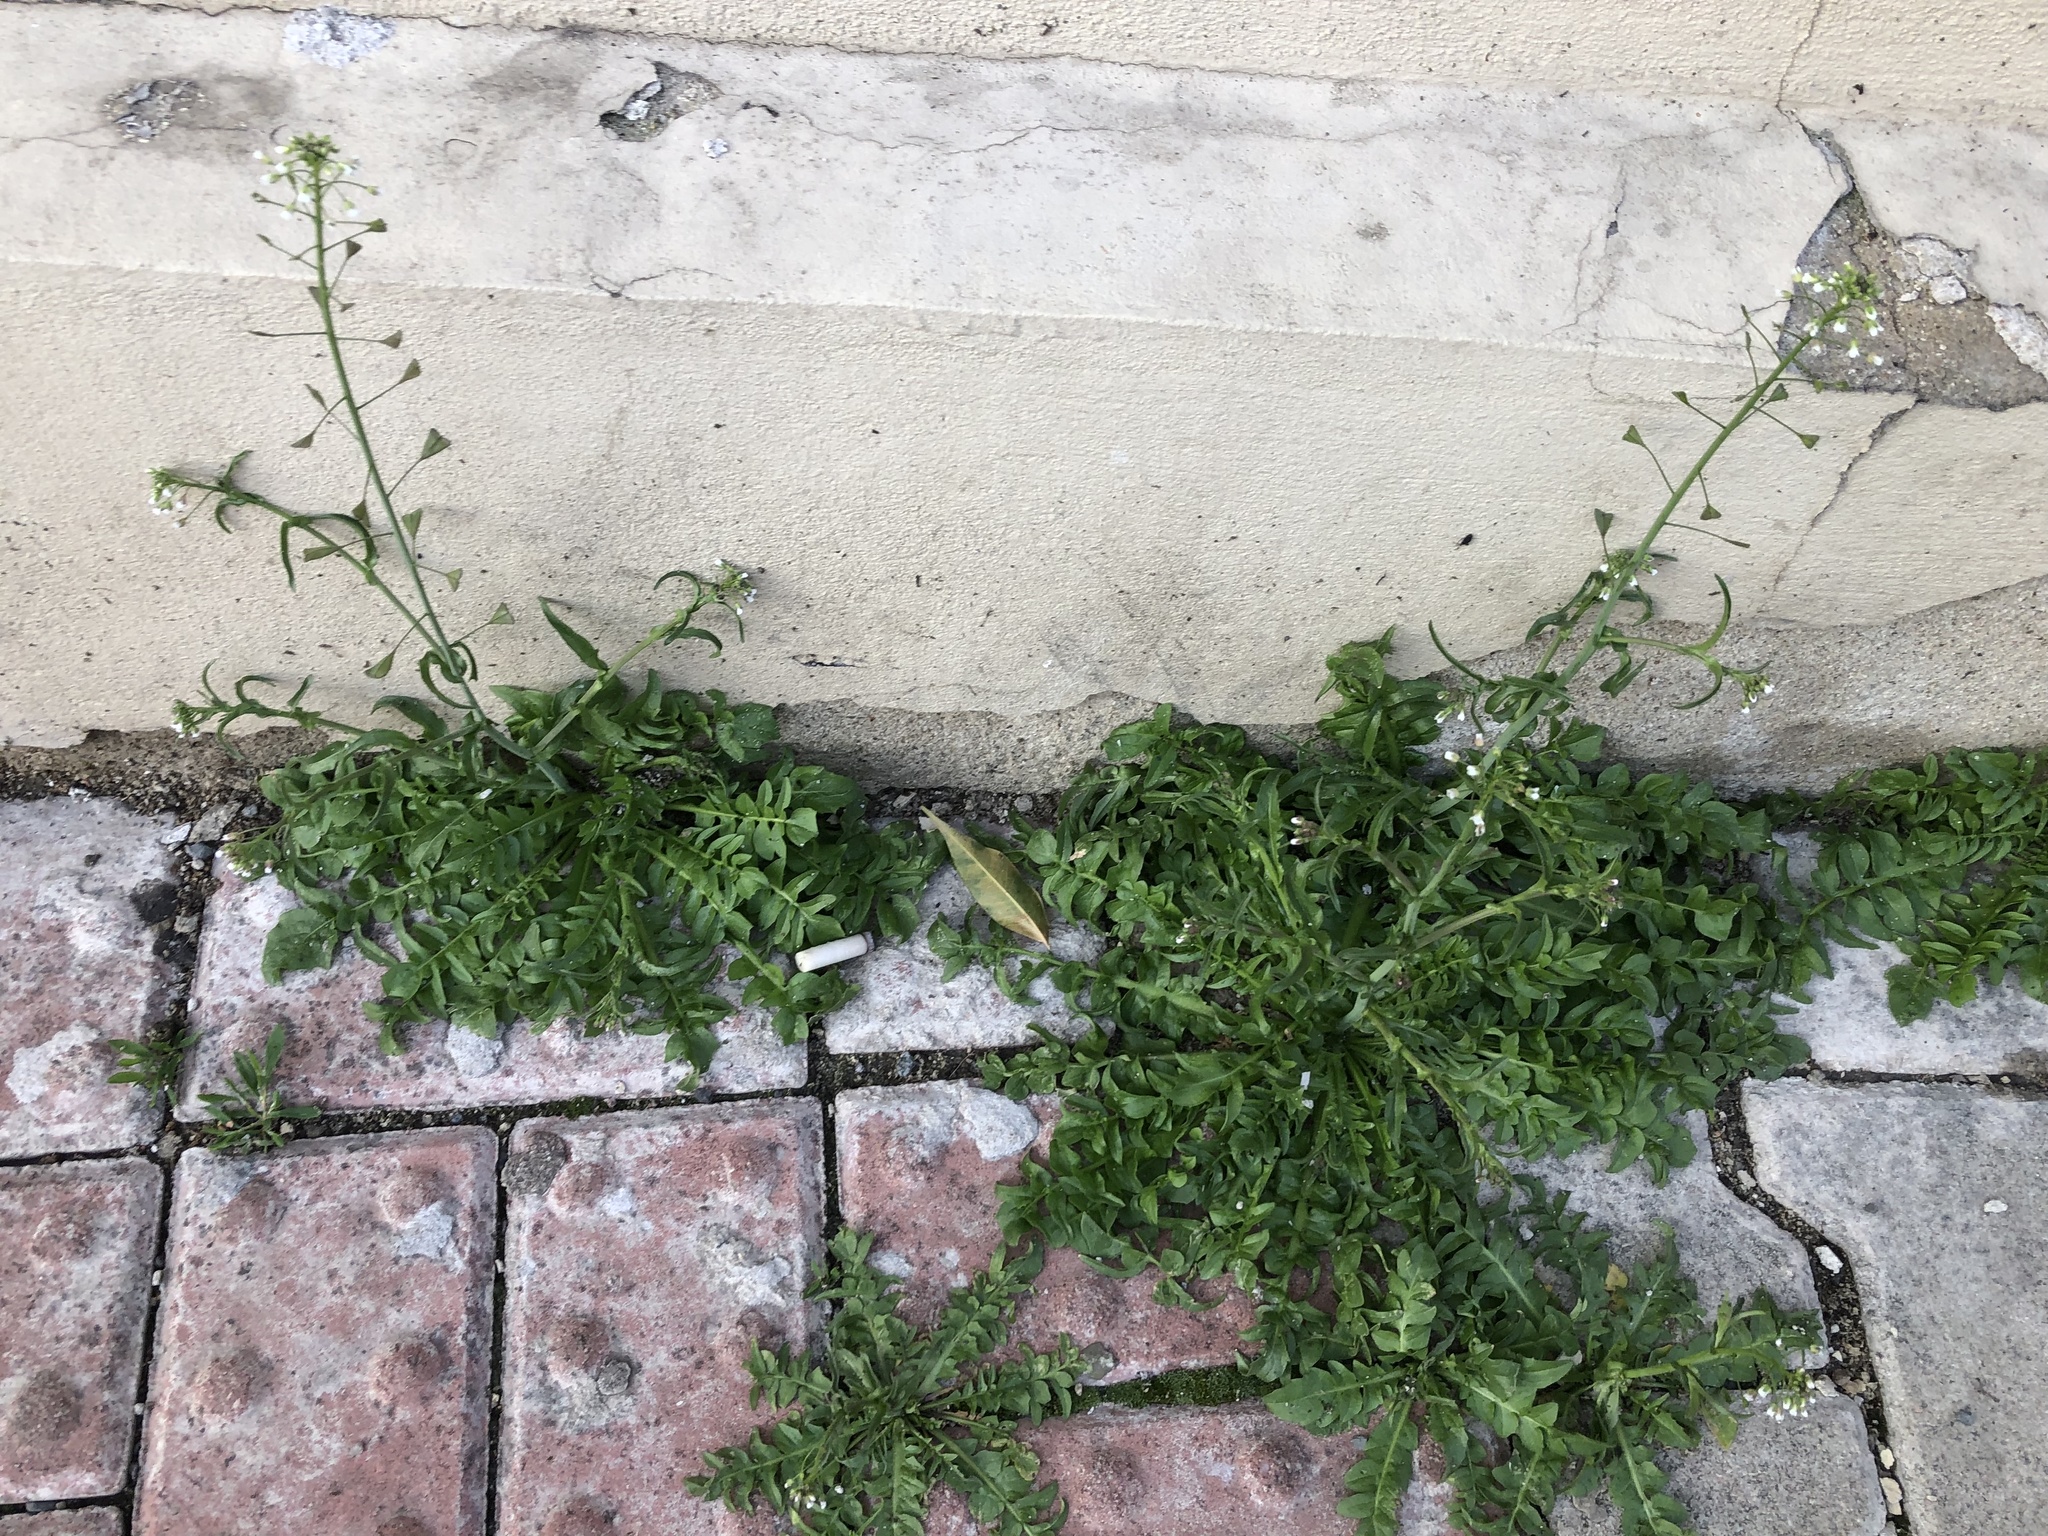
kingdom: Plantae
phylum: Tracheophyta
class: Magnoliopsida
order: Brassicales
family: Brassicaceae
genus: Capsella
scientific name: Capsella bursa-pastoris
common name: Shepherd's purse
